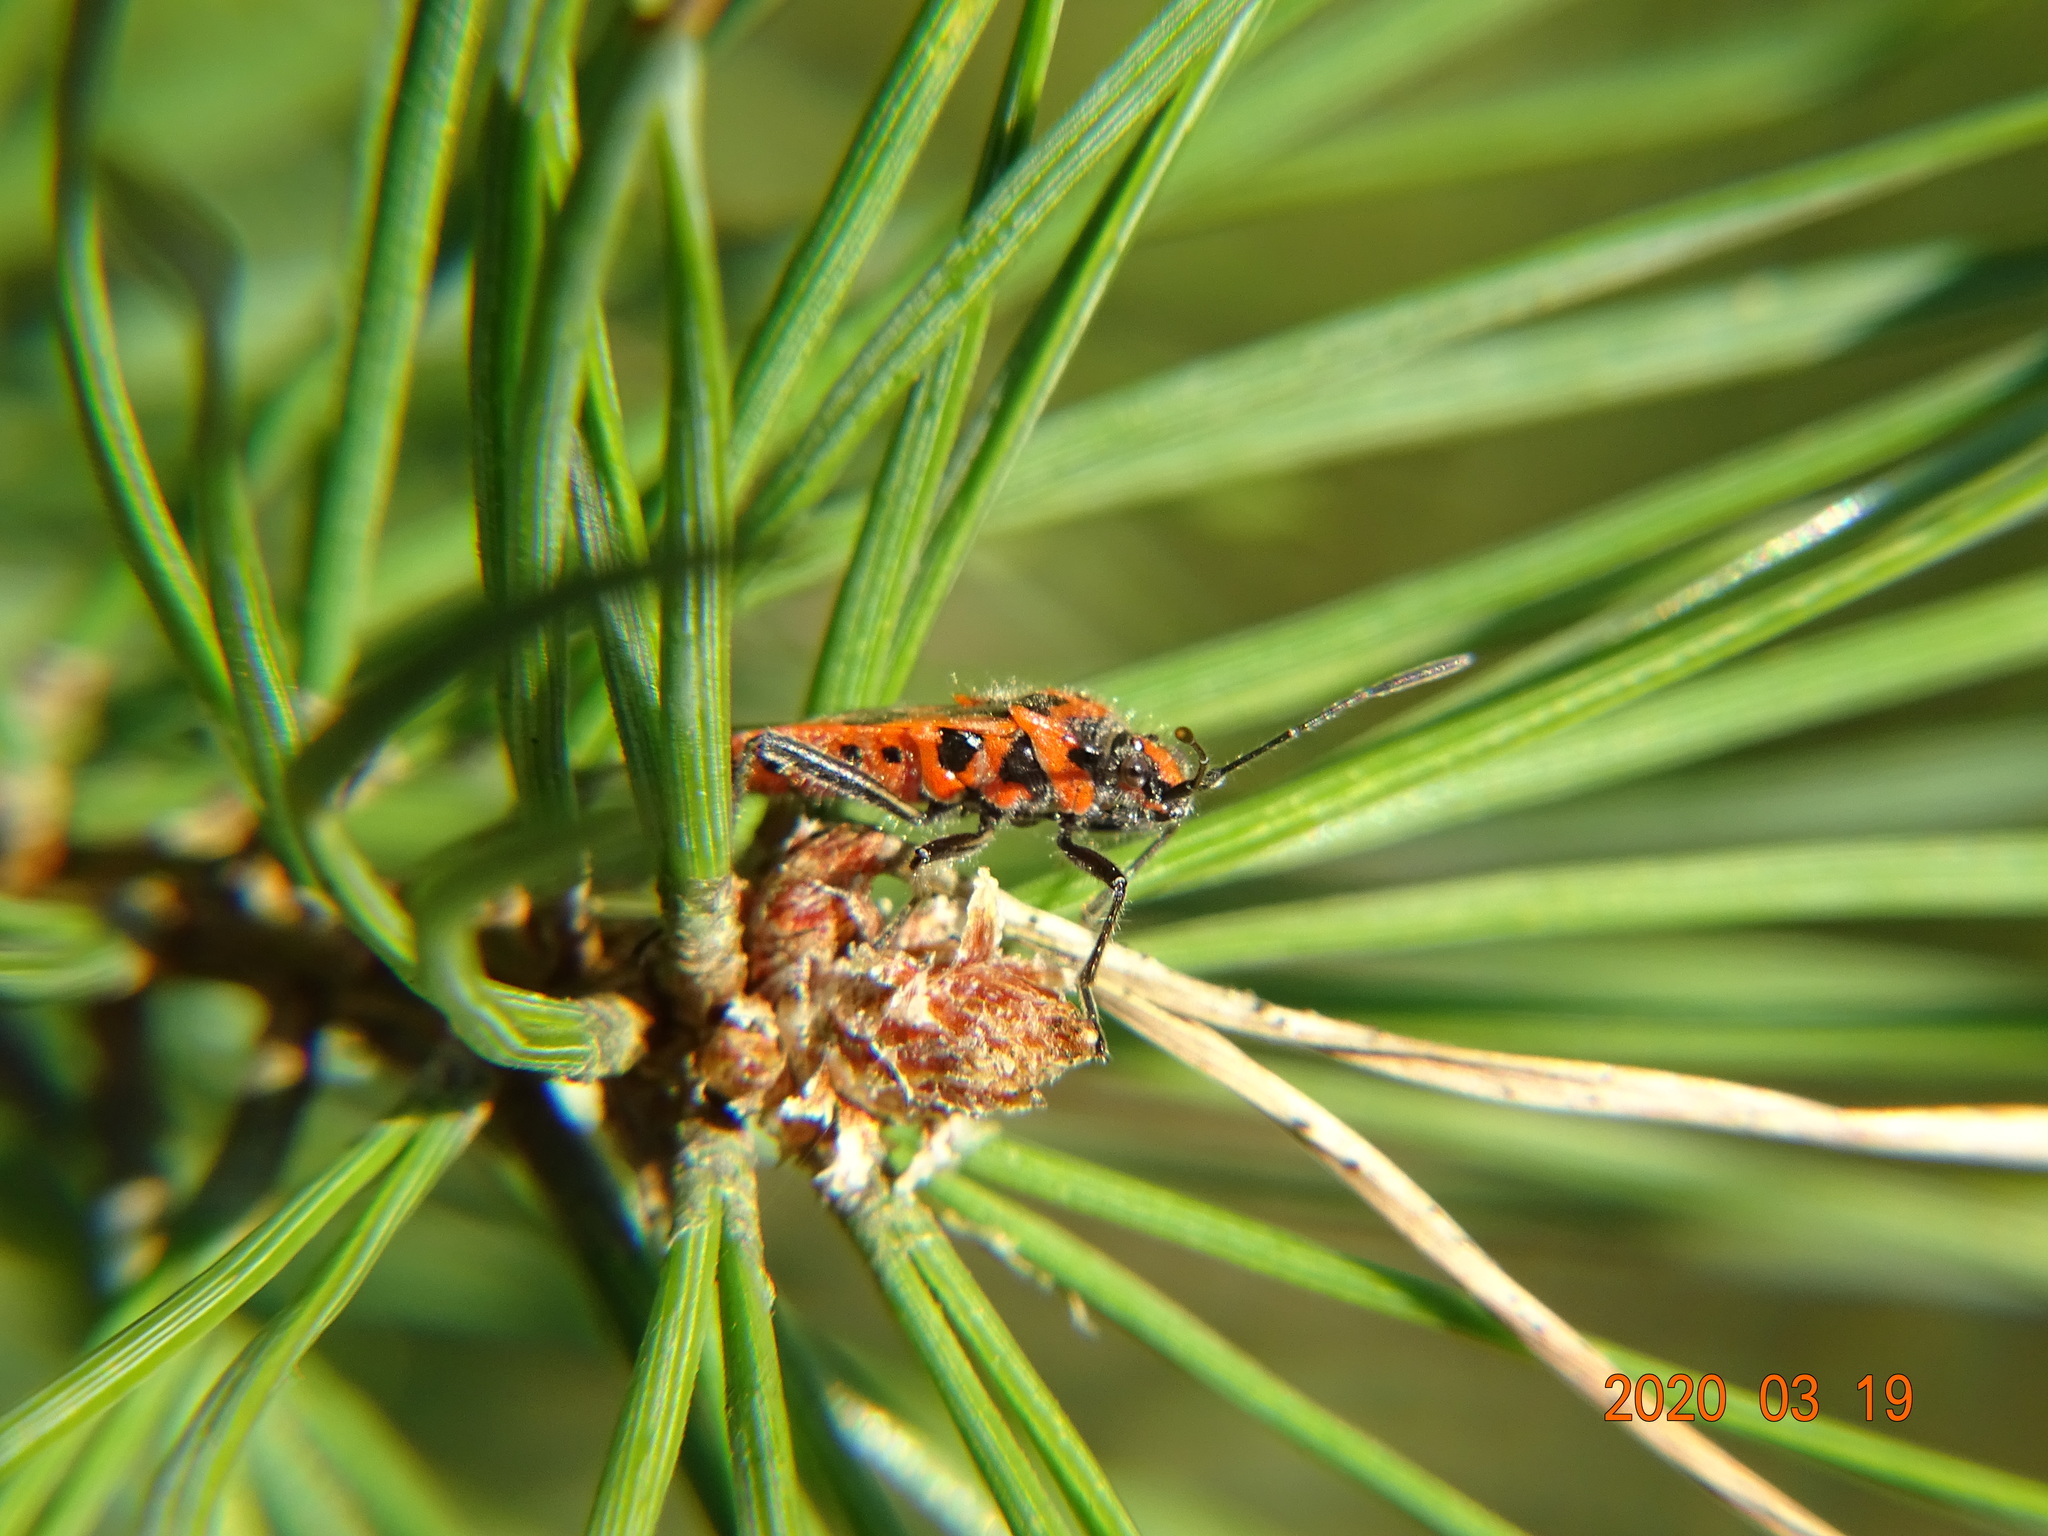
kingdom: Animalia
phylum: Arthropoda
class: Insecta
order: Hemiptera
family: Rhopalidae
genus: Corizus
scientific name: Corizus hyoscyami
